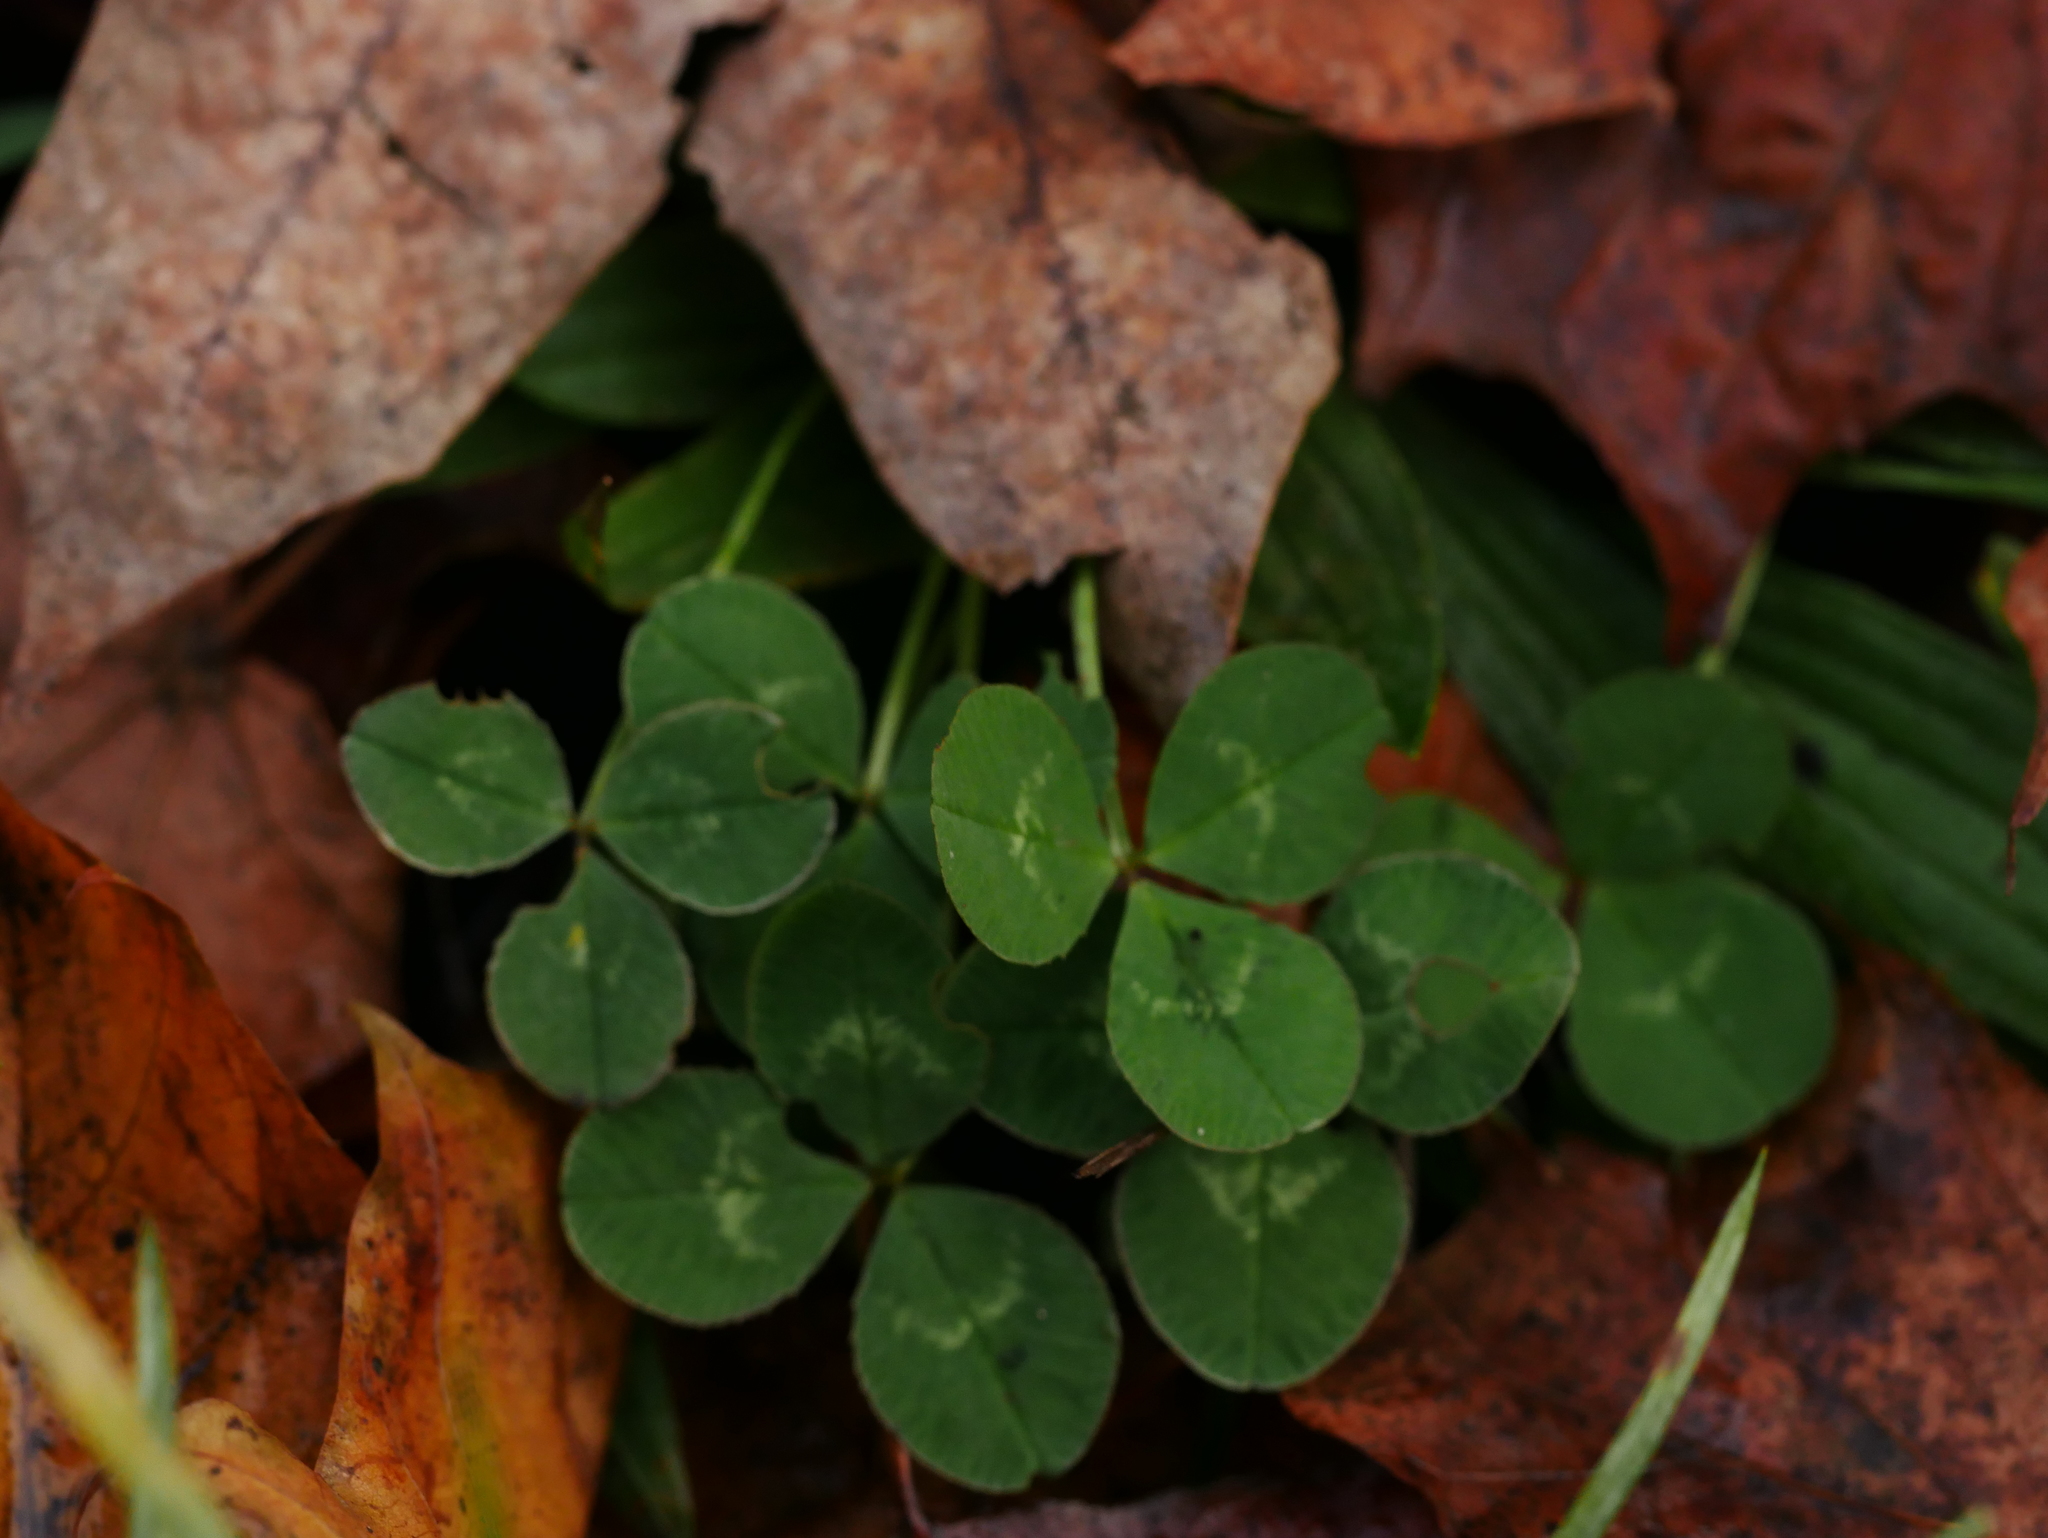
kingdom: Plantae
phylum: Tracheophyta
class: Magnoliopsida
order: Fabales
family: Fabaceae
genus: Trifolium
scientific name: Trifolium repens
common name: White clover
